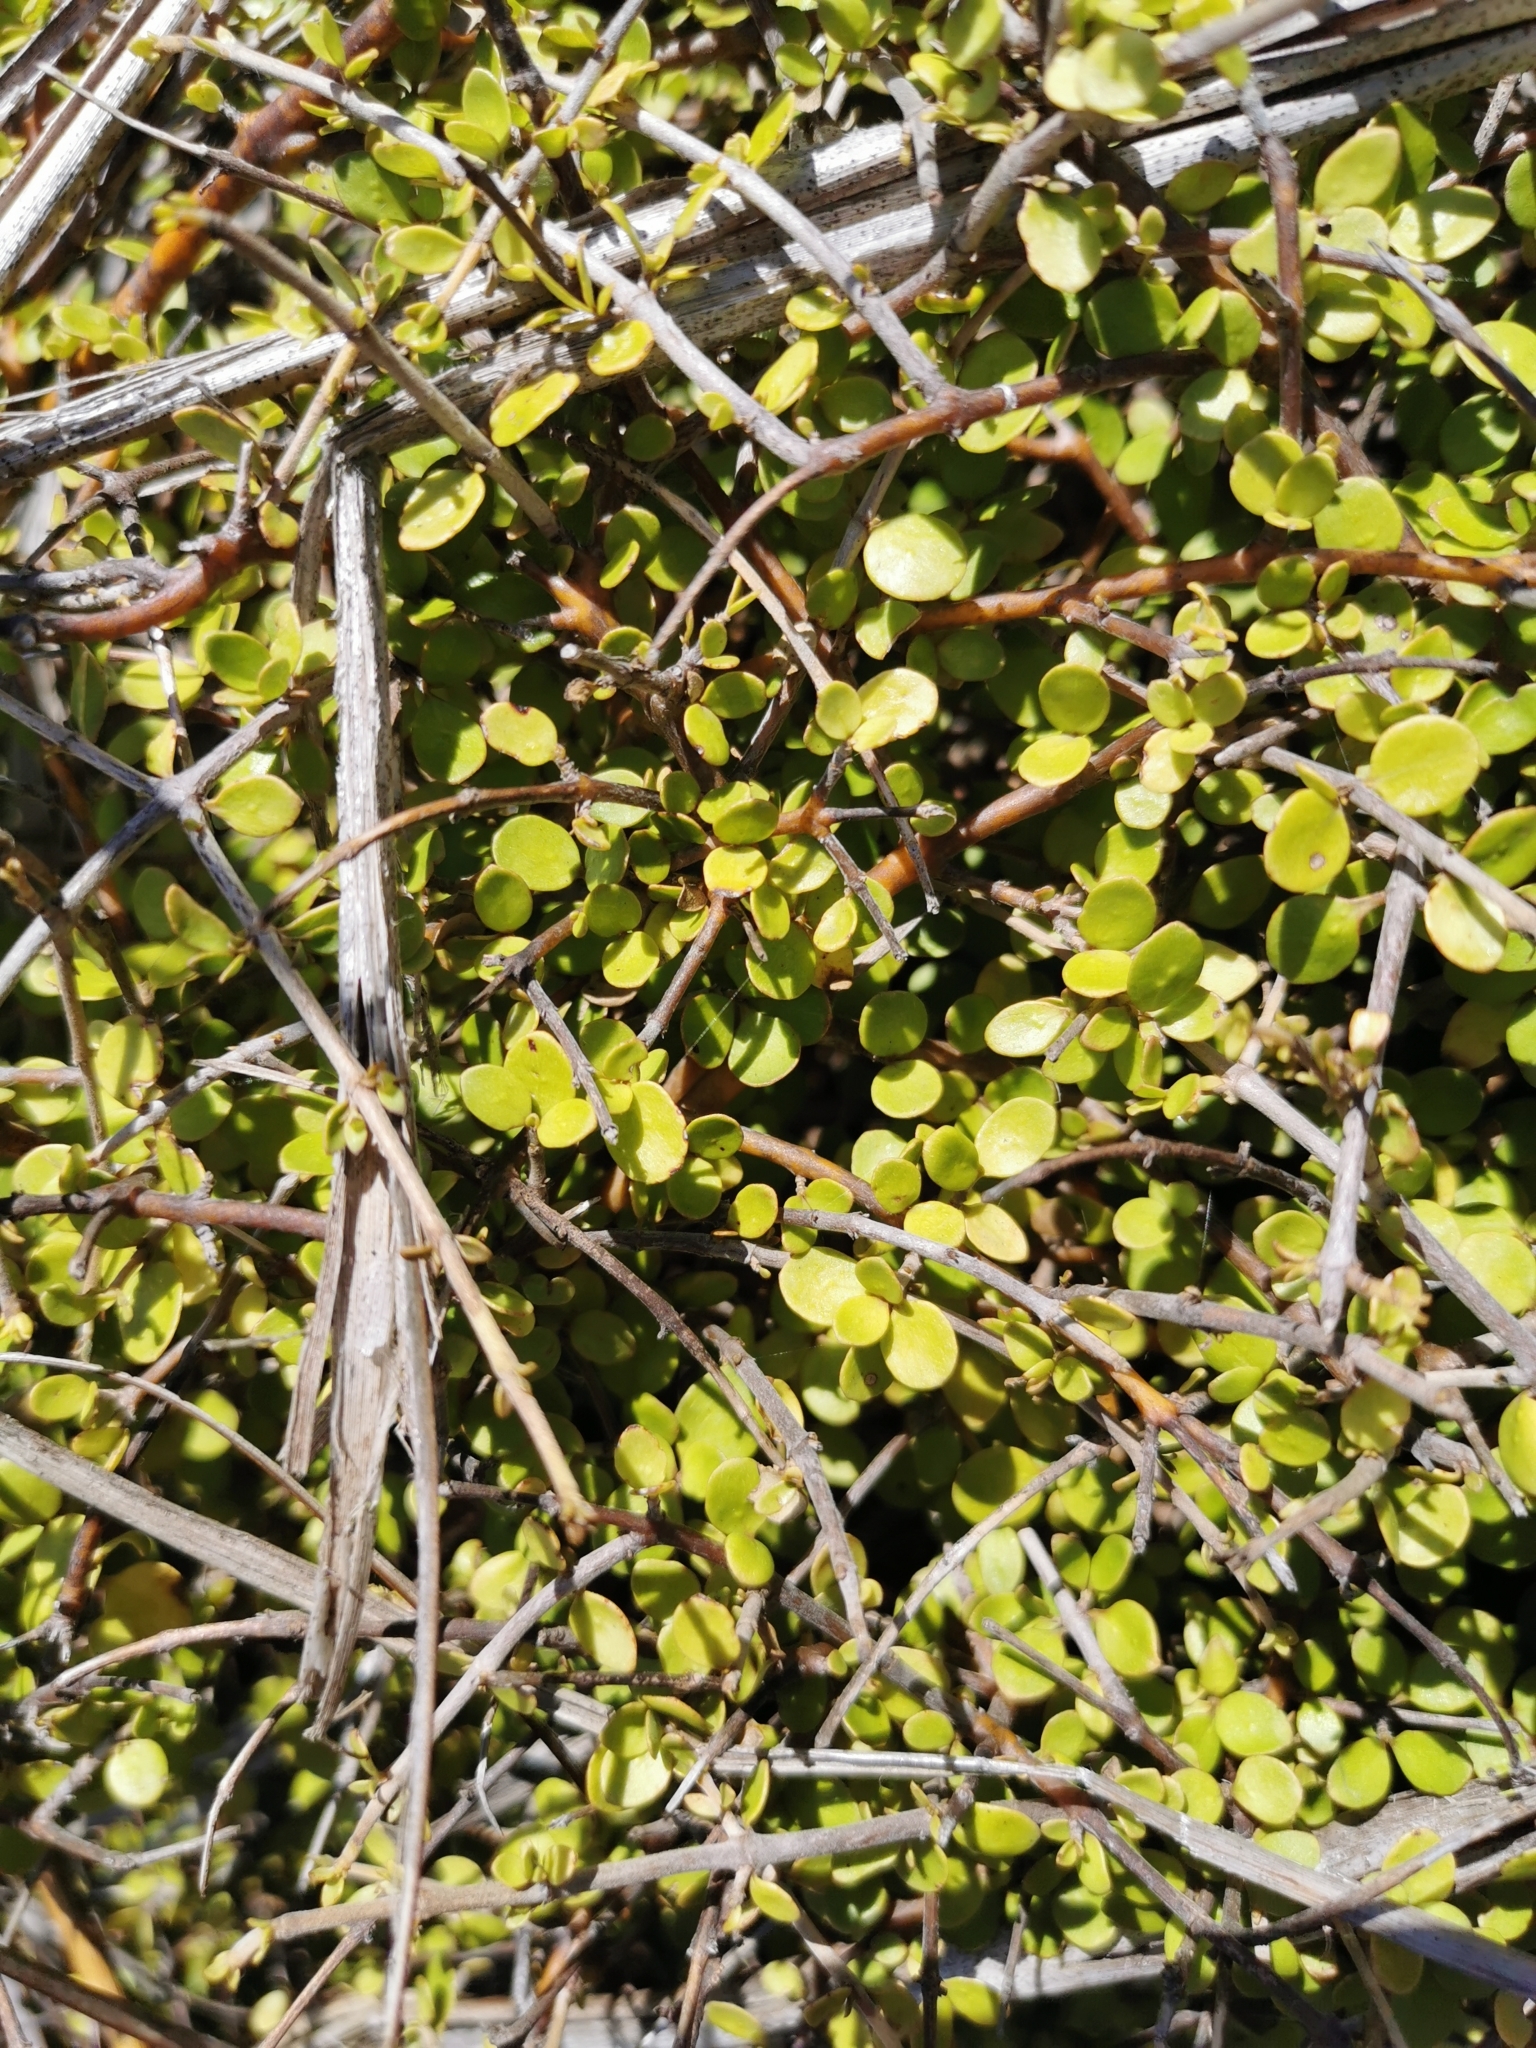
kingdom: Plantae
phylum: Tracheophyta
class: Magnoliopsida
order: Gentianales
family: Rubiaceae
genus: Coprosma
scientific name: Coprosma neglecta
